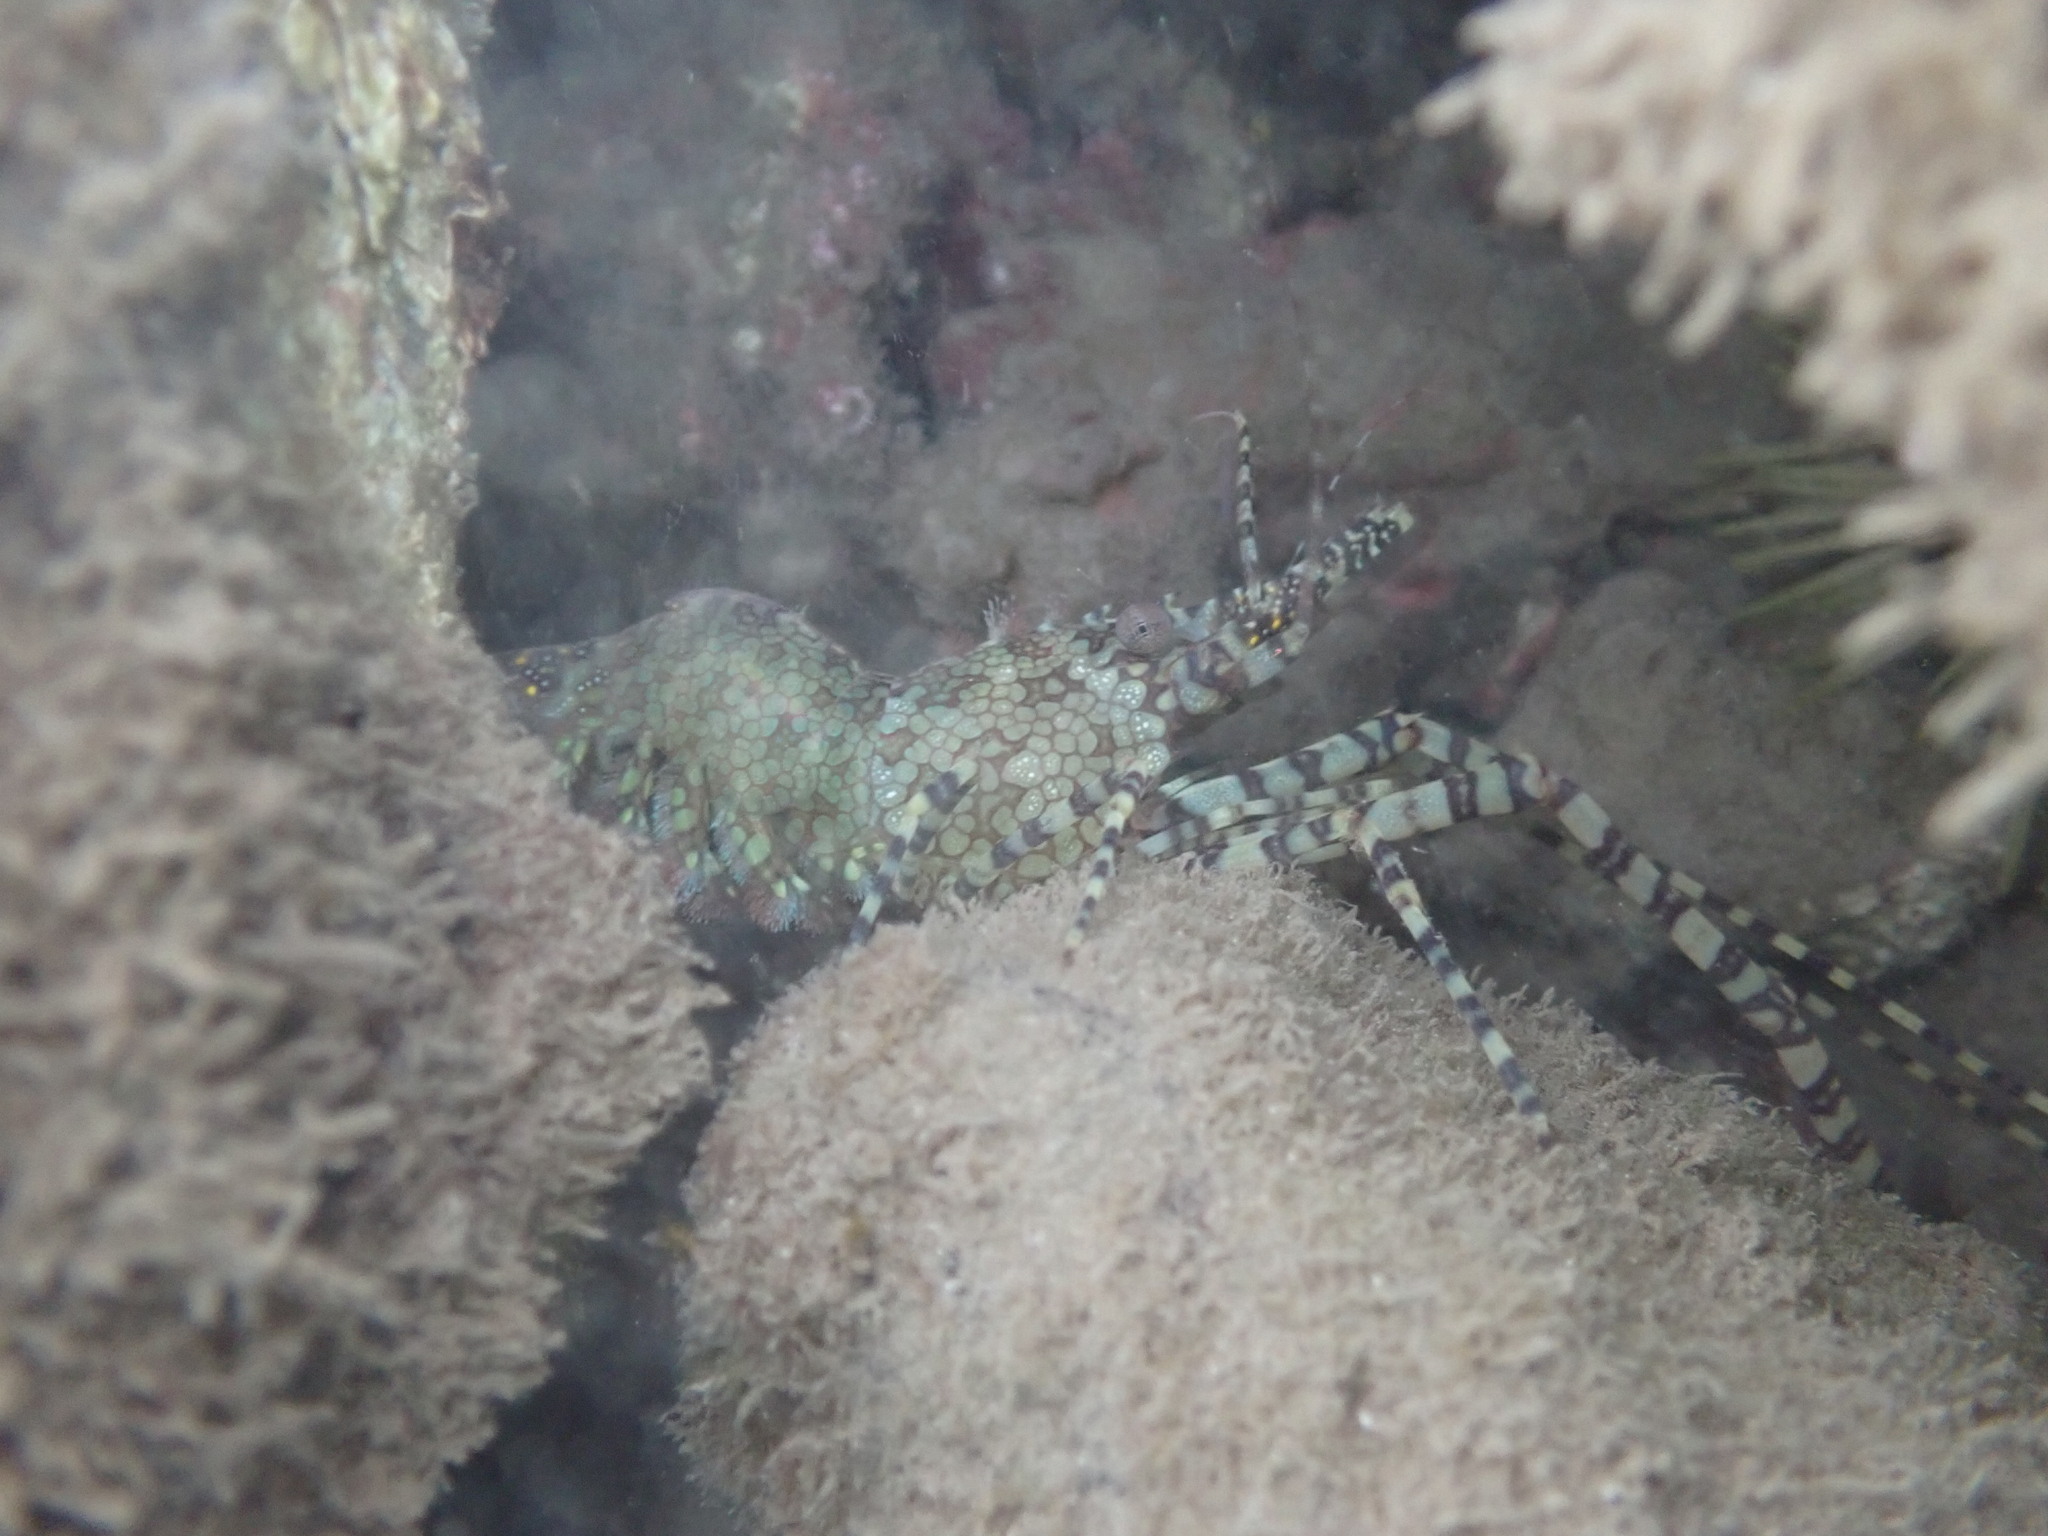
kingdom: Animalia
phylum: Arthropoda
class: Malacostraca
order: Decapoda
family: Hippolytidae
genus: Saron
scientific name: Saron marmoratus
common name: Common marble shrimp
